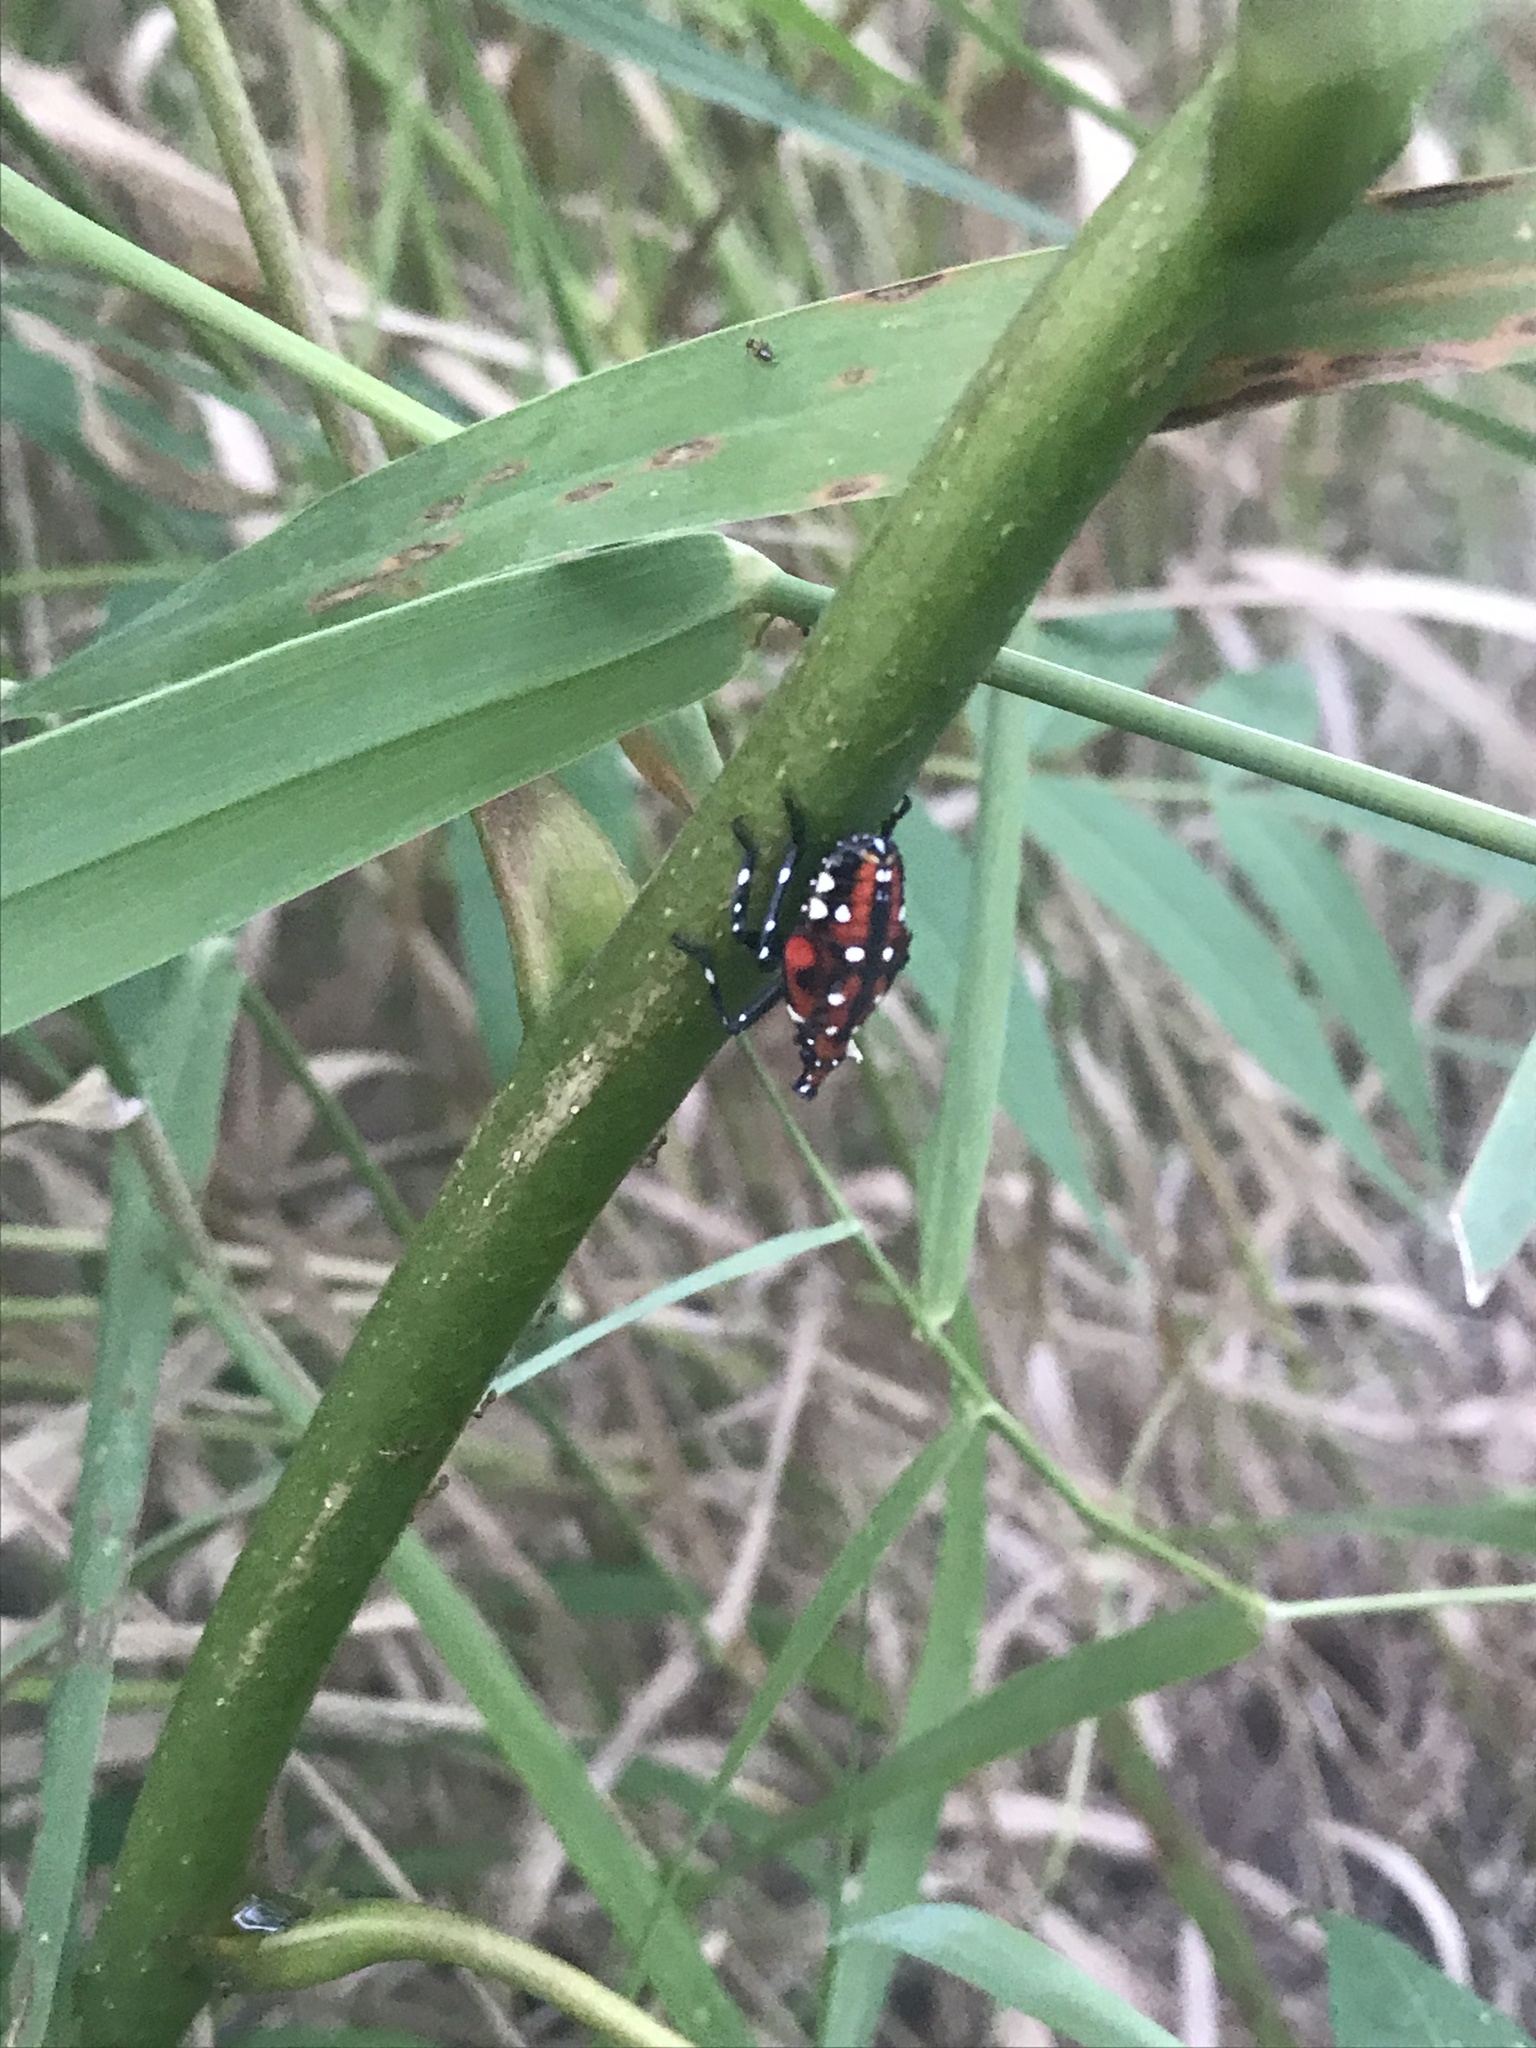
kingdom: Animalia
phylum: Arthropoda
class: Insecta
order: Hemiptera
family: Fulgoridae
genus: Lycorma
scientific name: Lycorma delicatula
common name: Spotted lanternfly
